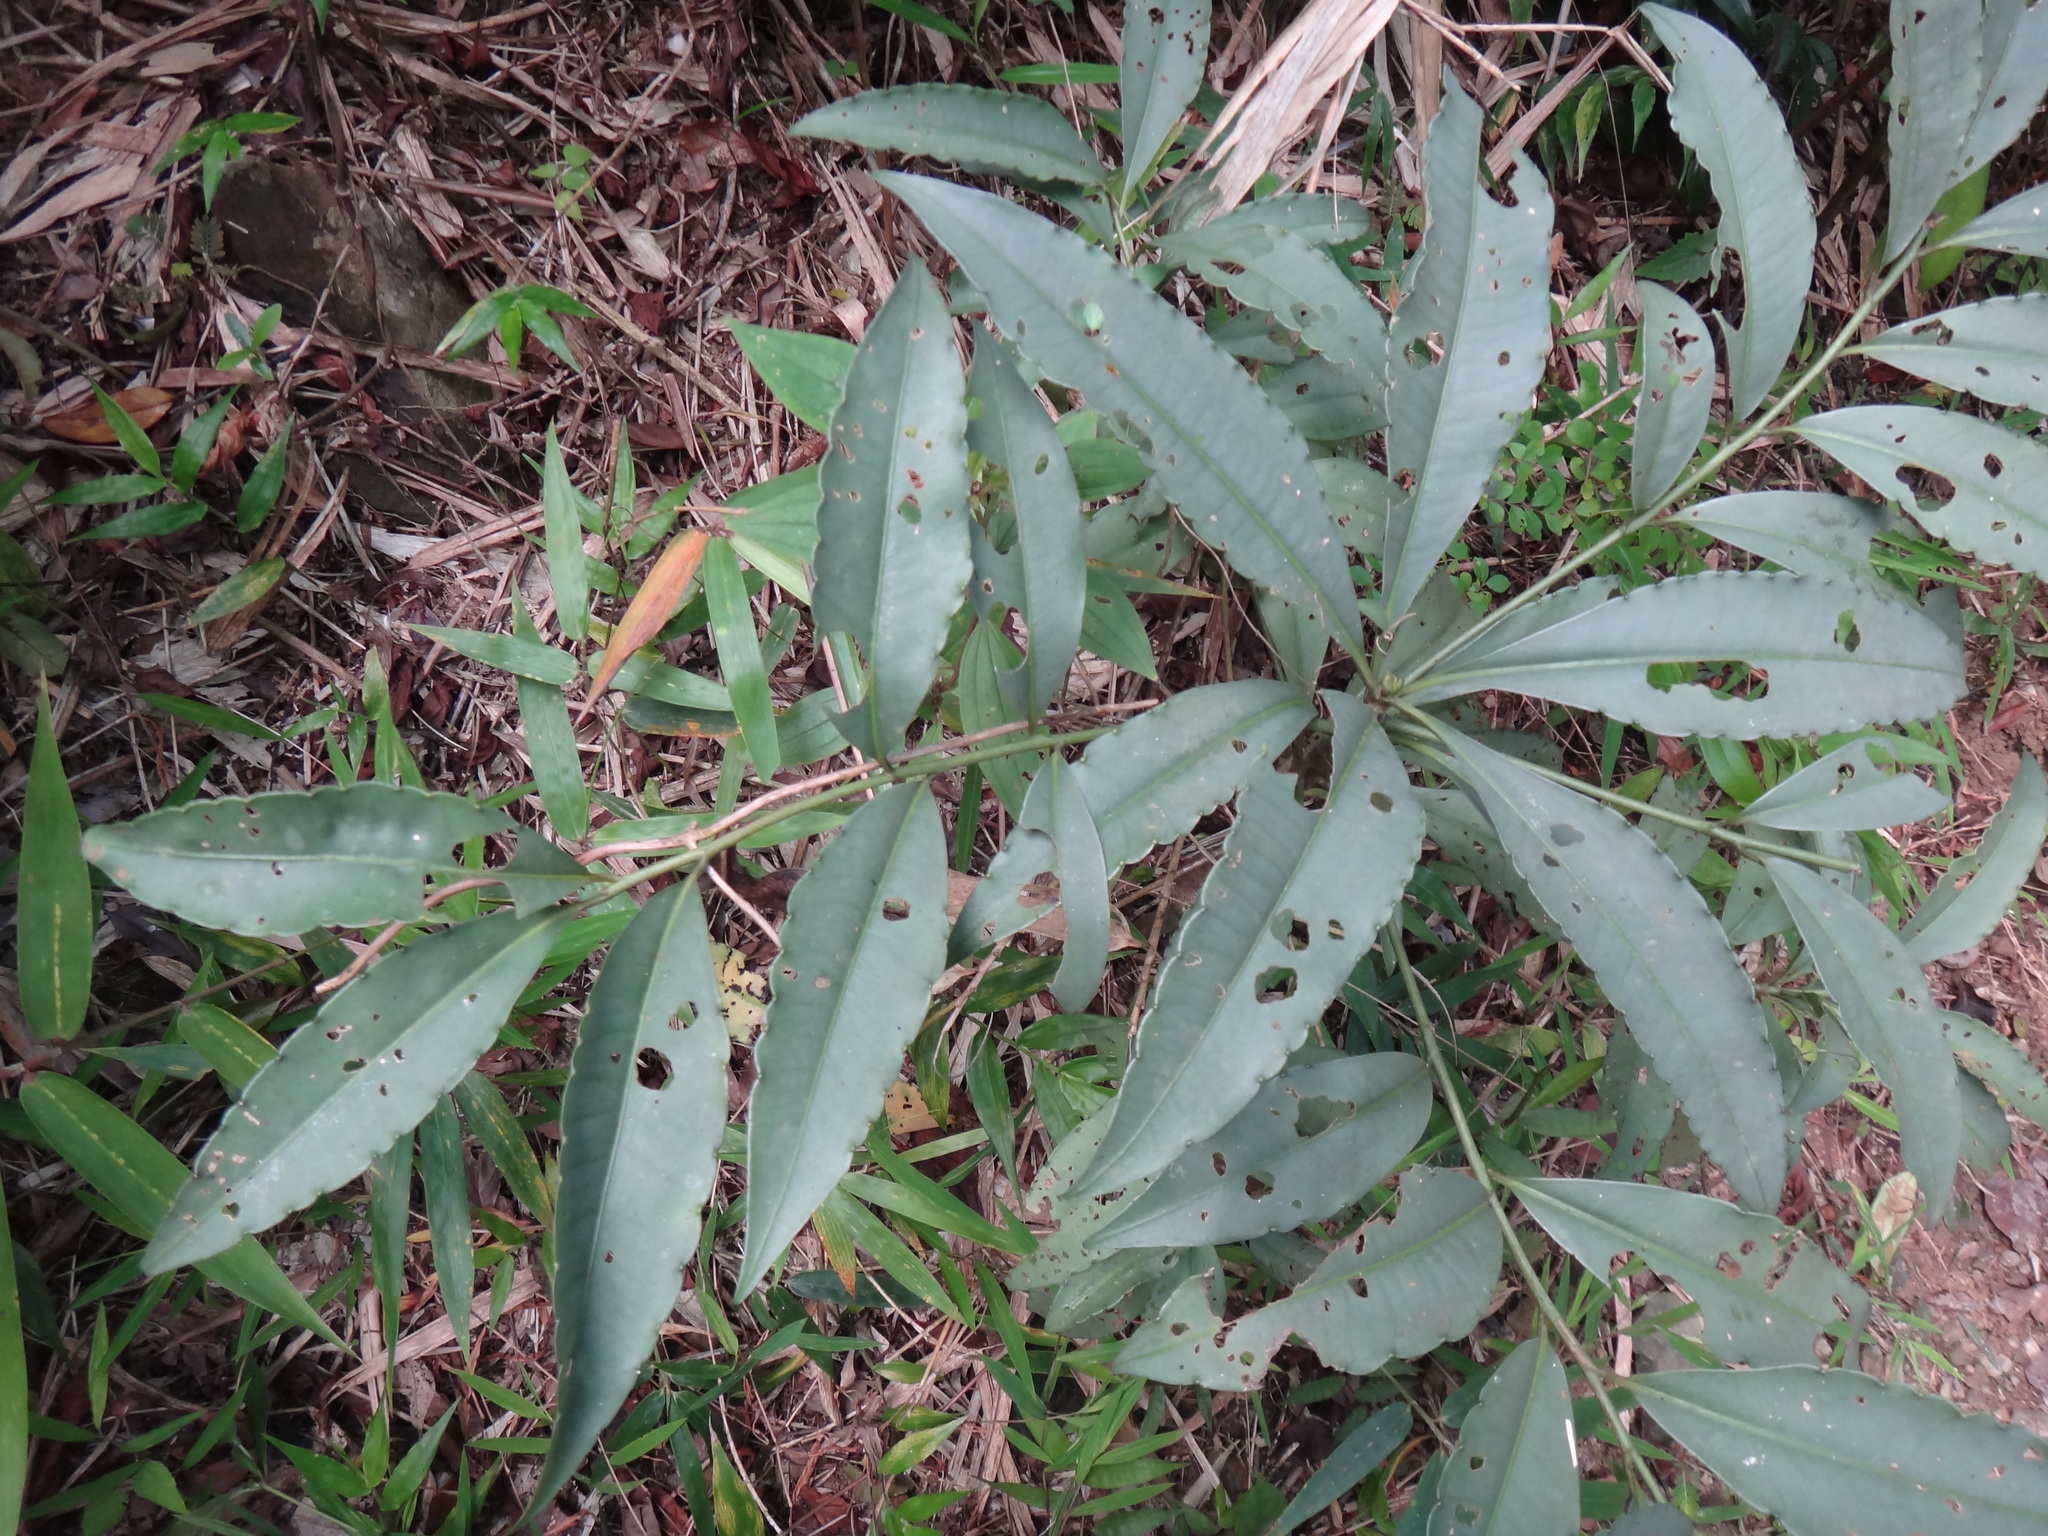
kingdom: Plantae
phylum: Tracheophyta
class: Magnoliopsida
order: Ericales
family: Primulaceae
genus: Ardisia
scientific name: Ardisia polysticta
